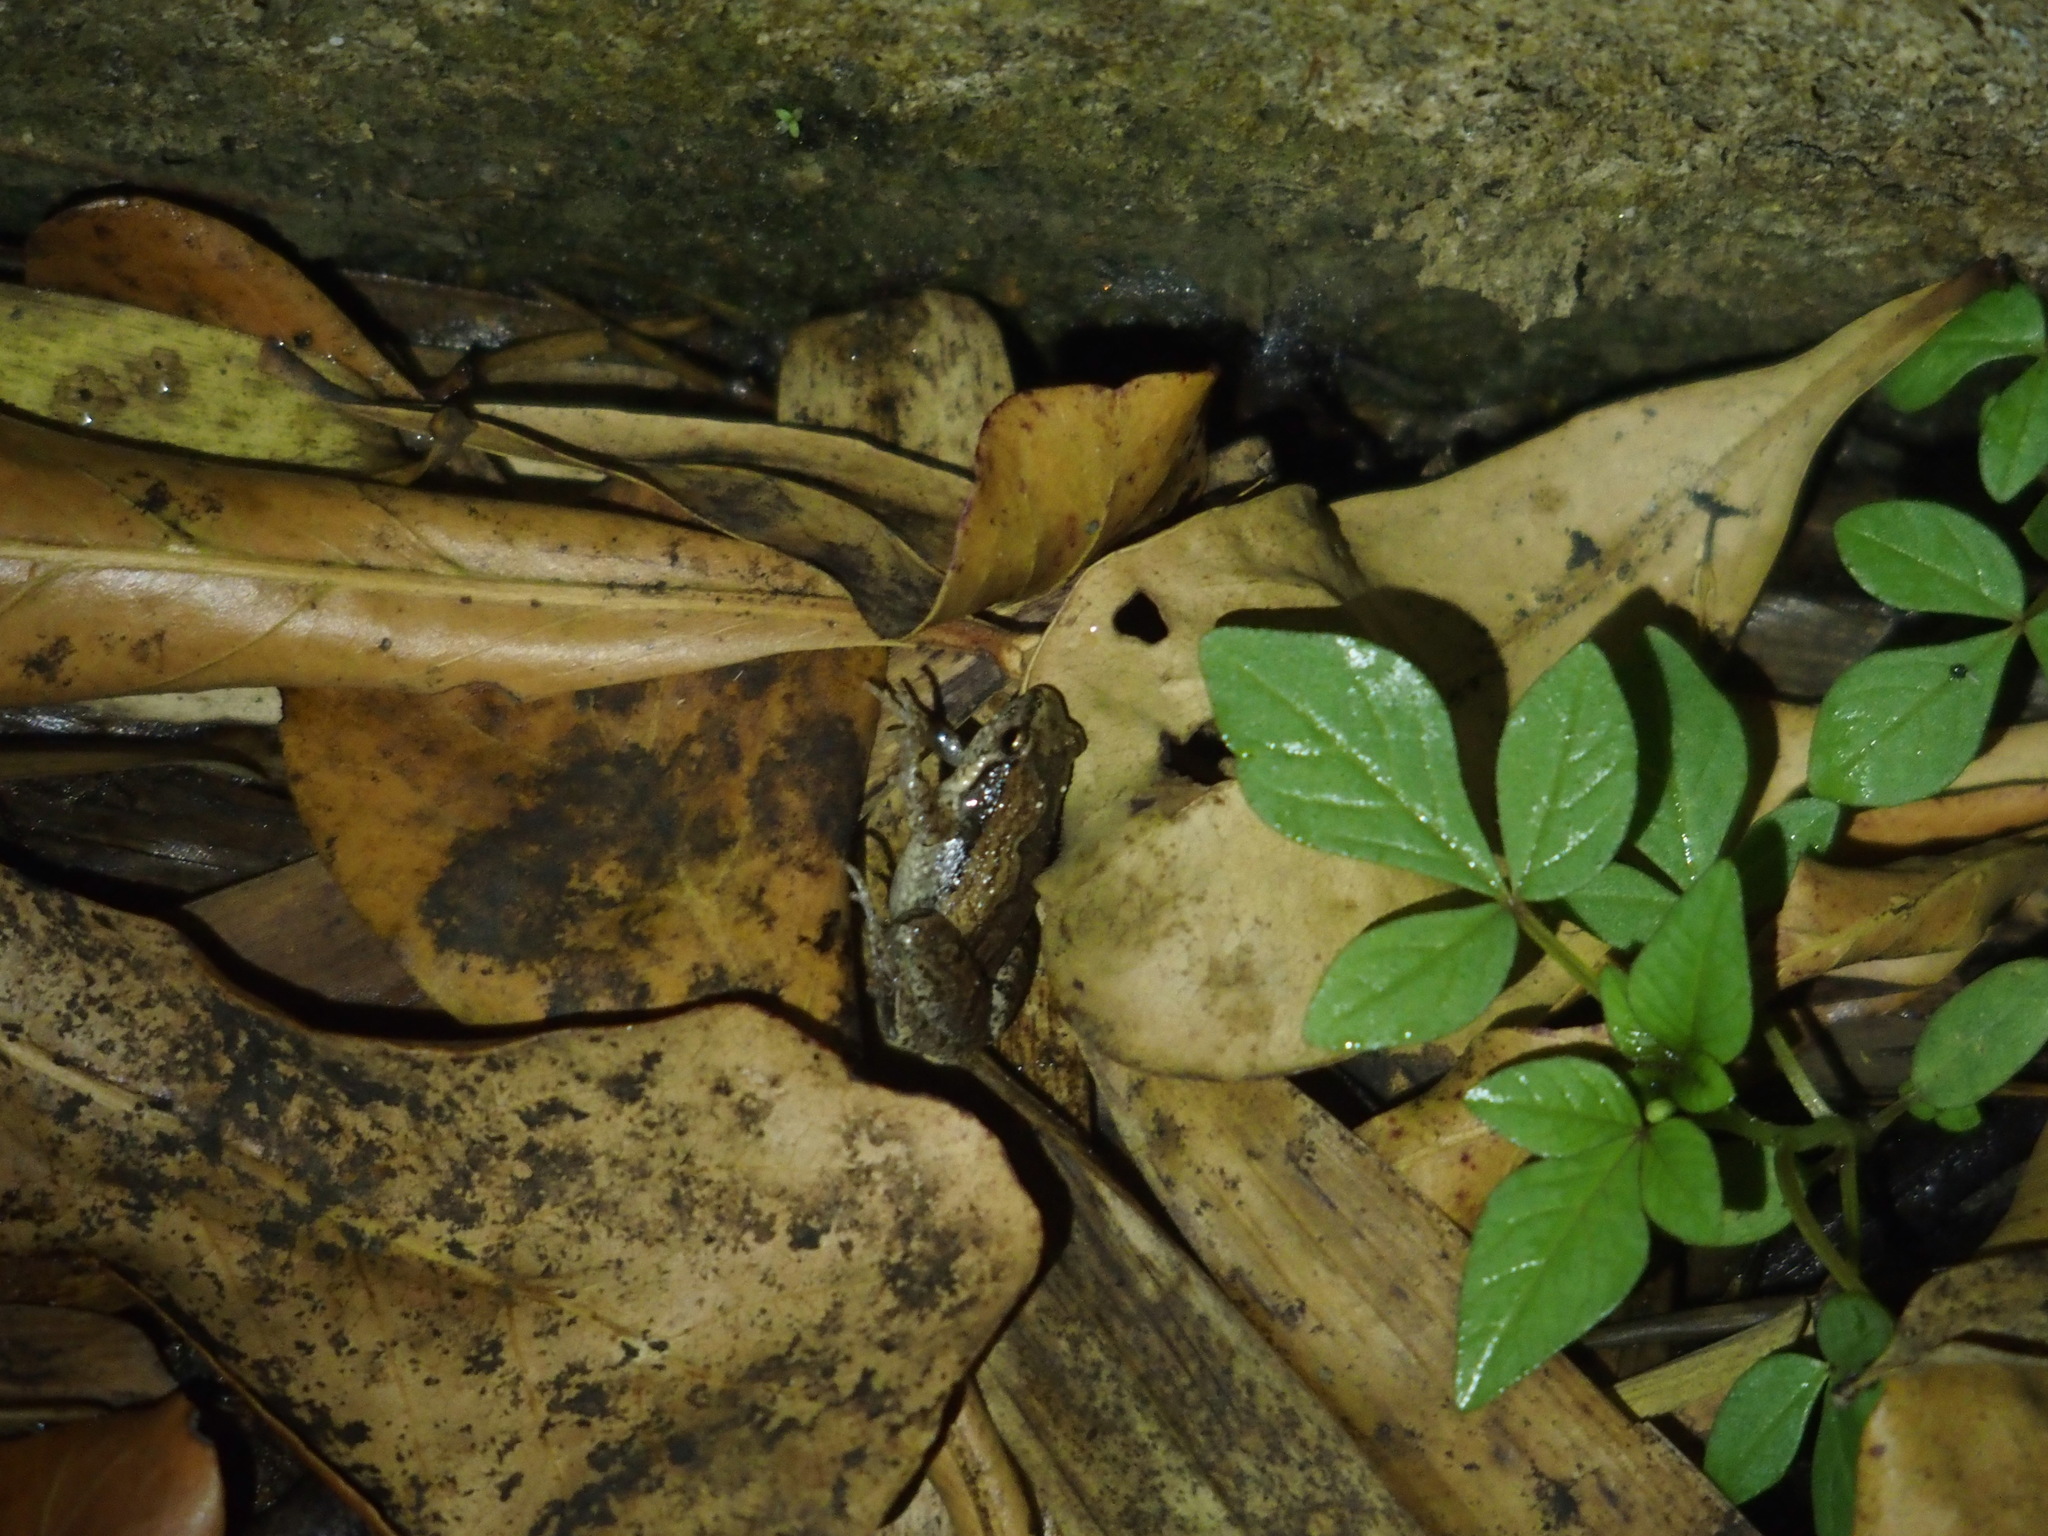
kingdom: Animalia
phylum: Chordata
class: Amphibia
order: Anura
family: Microhylidae
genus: Microhyla
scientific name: Microhyla fissipes
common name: Ornate narrow-mouthed frog
